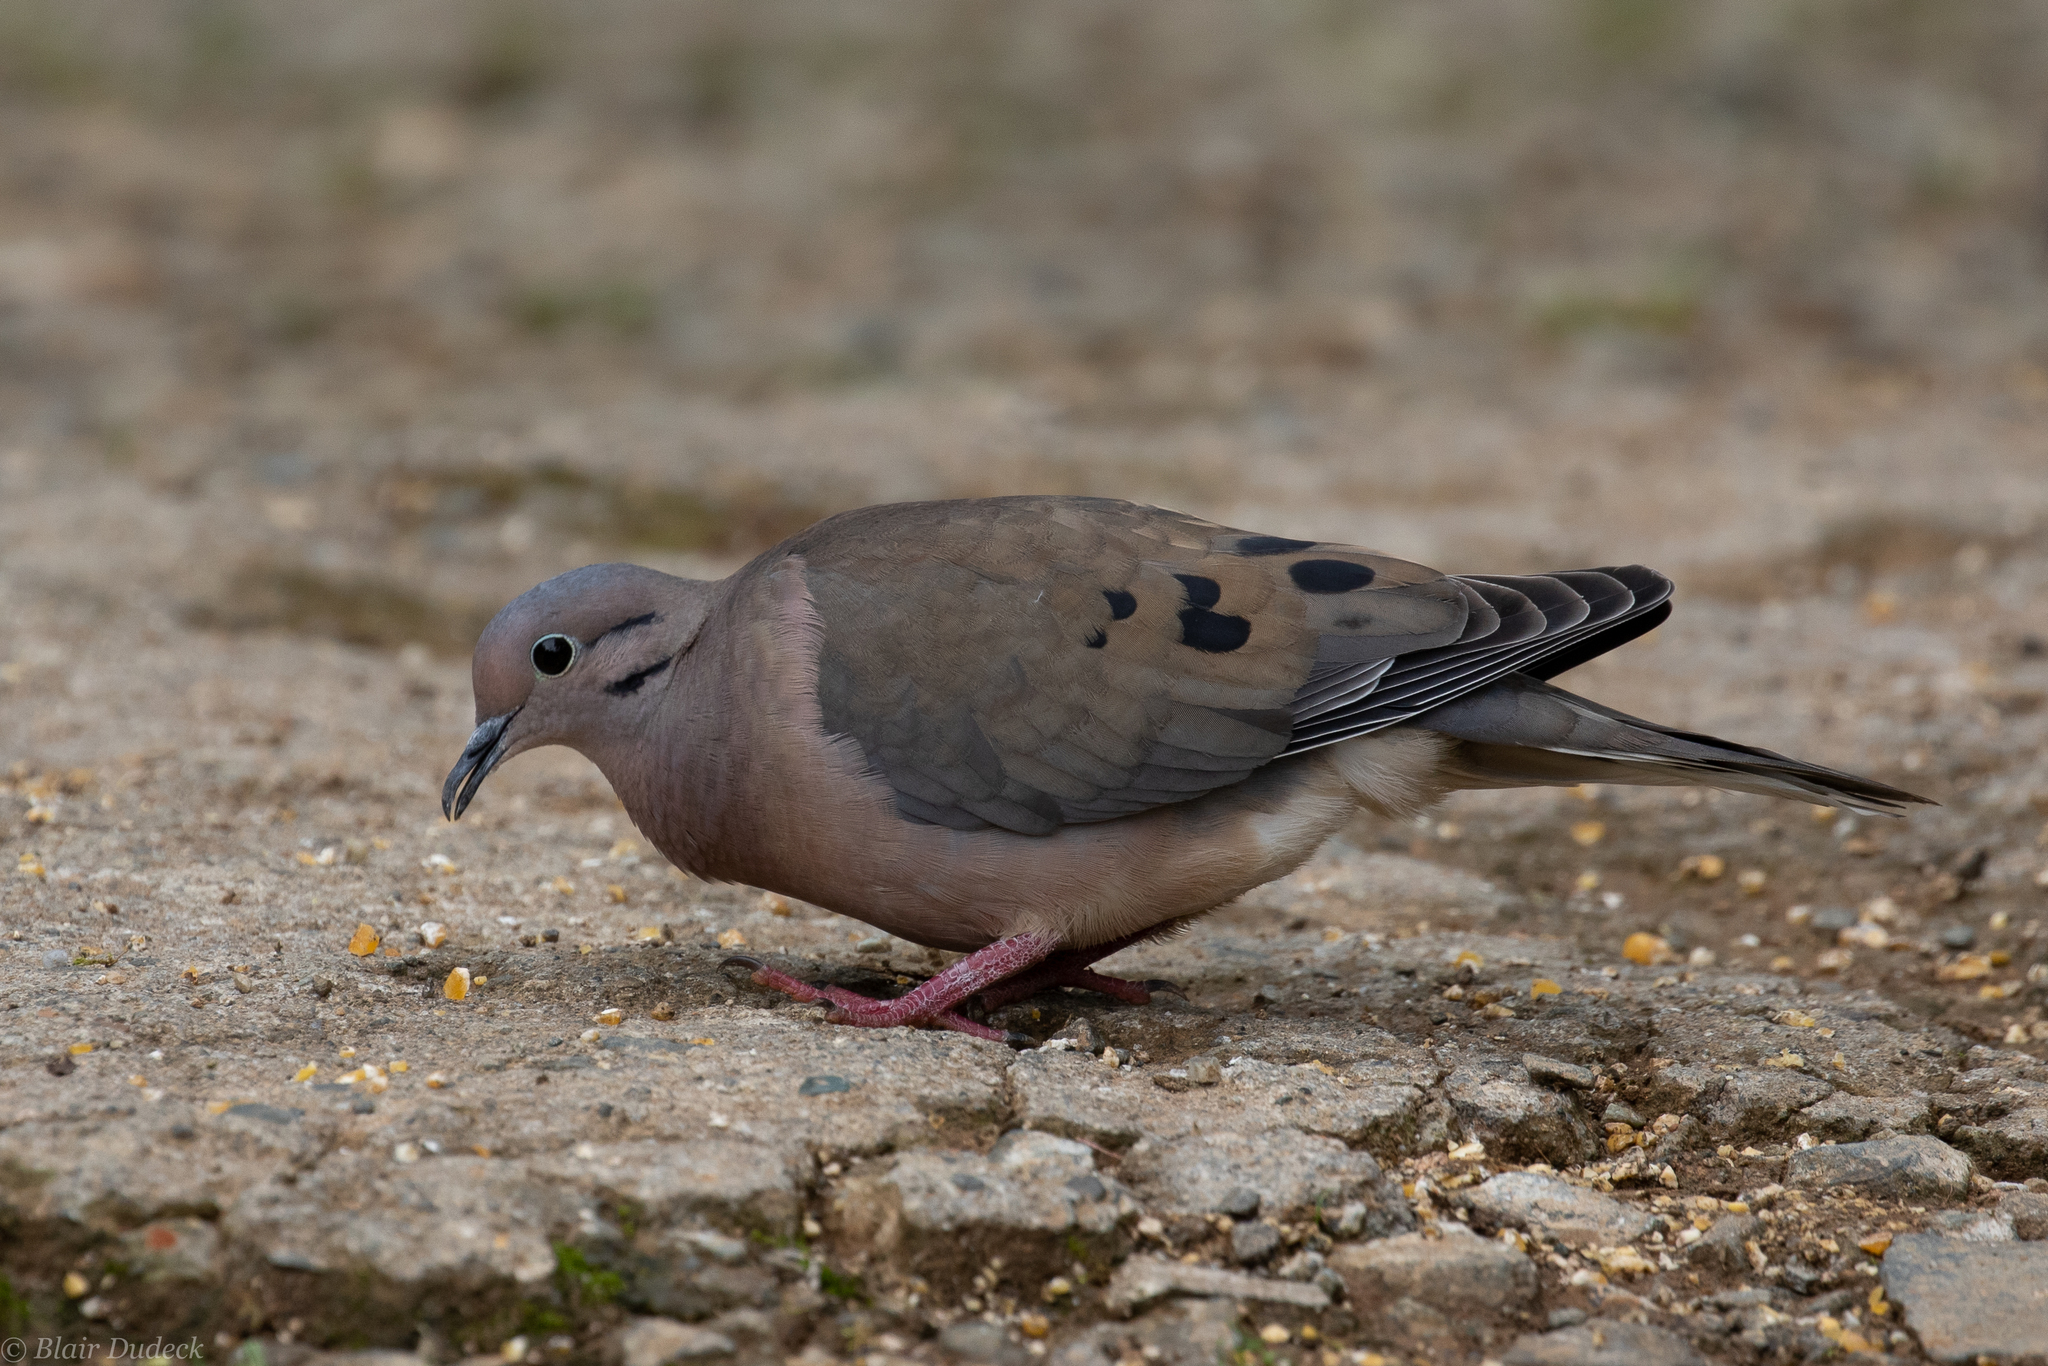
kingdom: Animalia
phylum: Chordata
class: Aves
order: Columbiformes
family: Columbidae
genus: Zenaida
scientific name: Zenaida auriculata
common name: Eared dove
